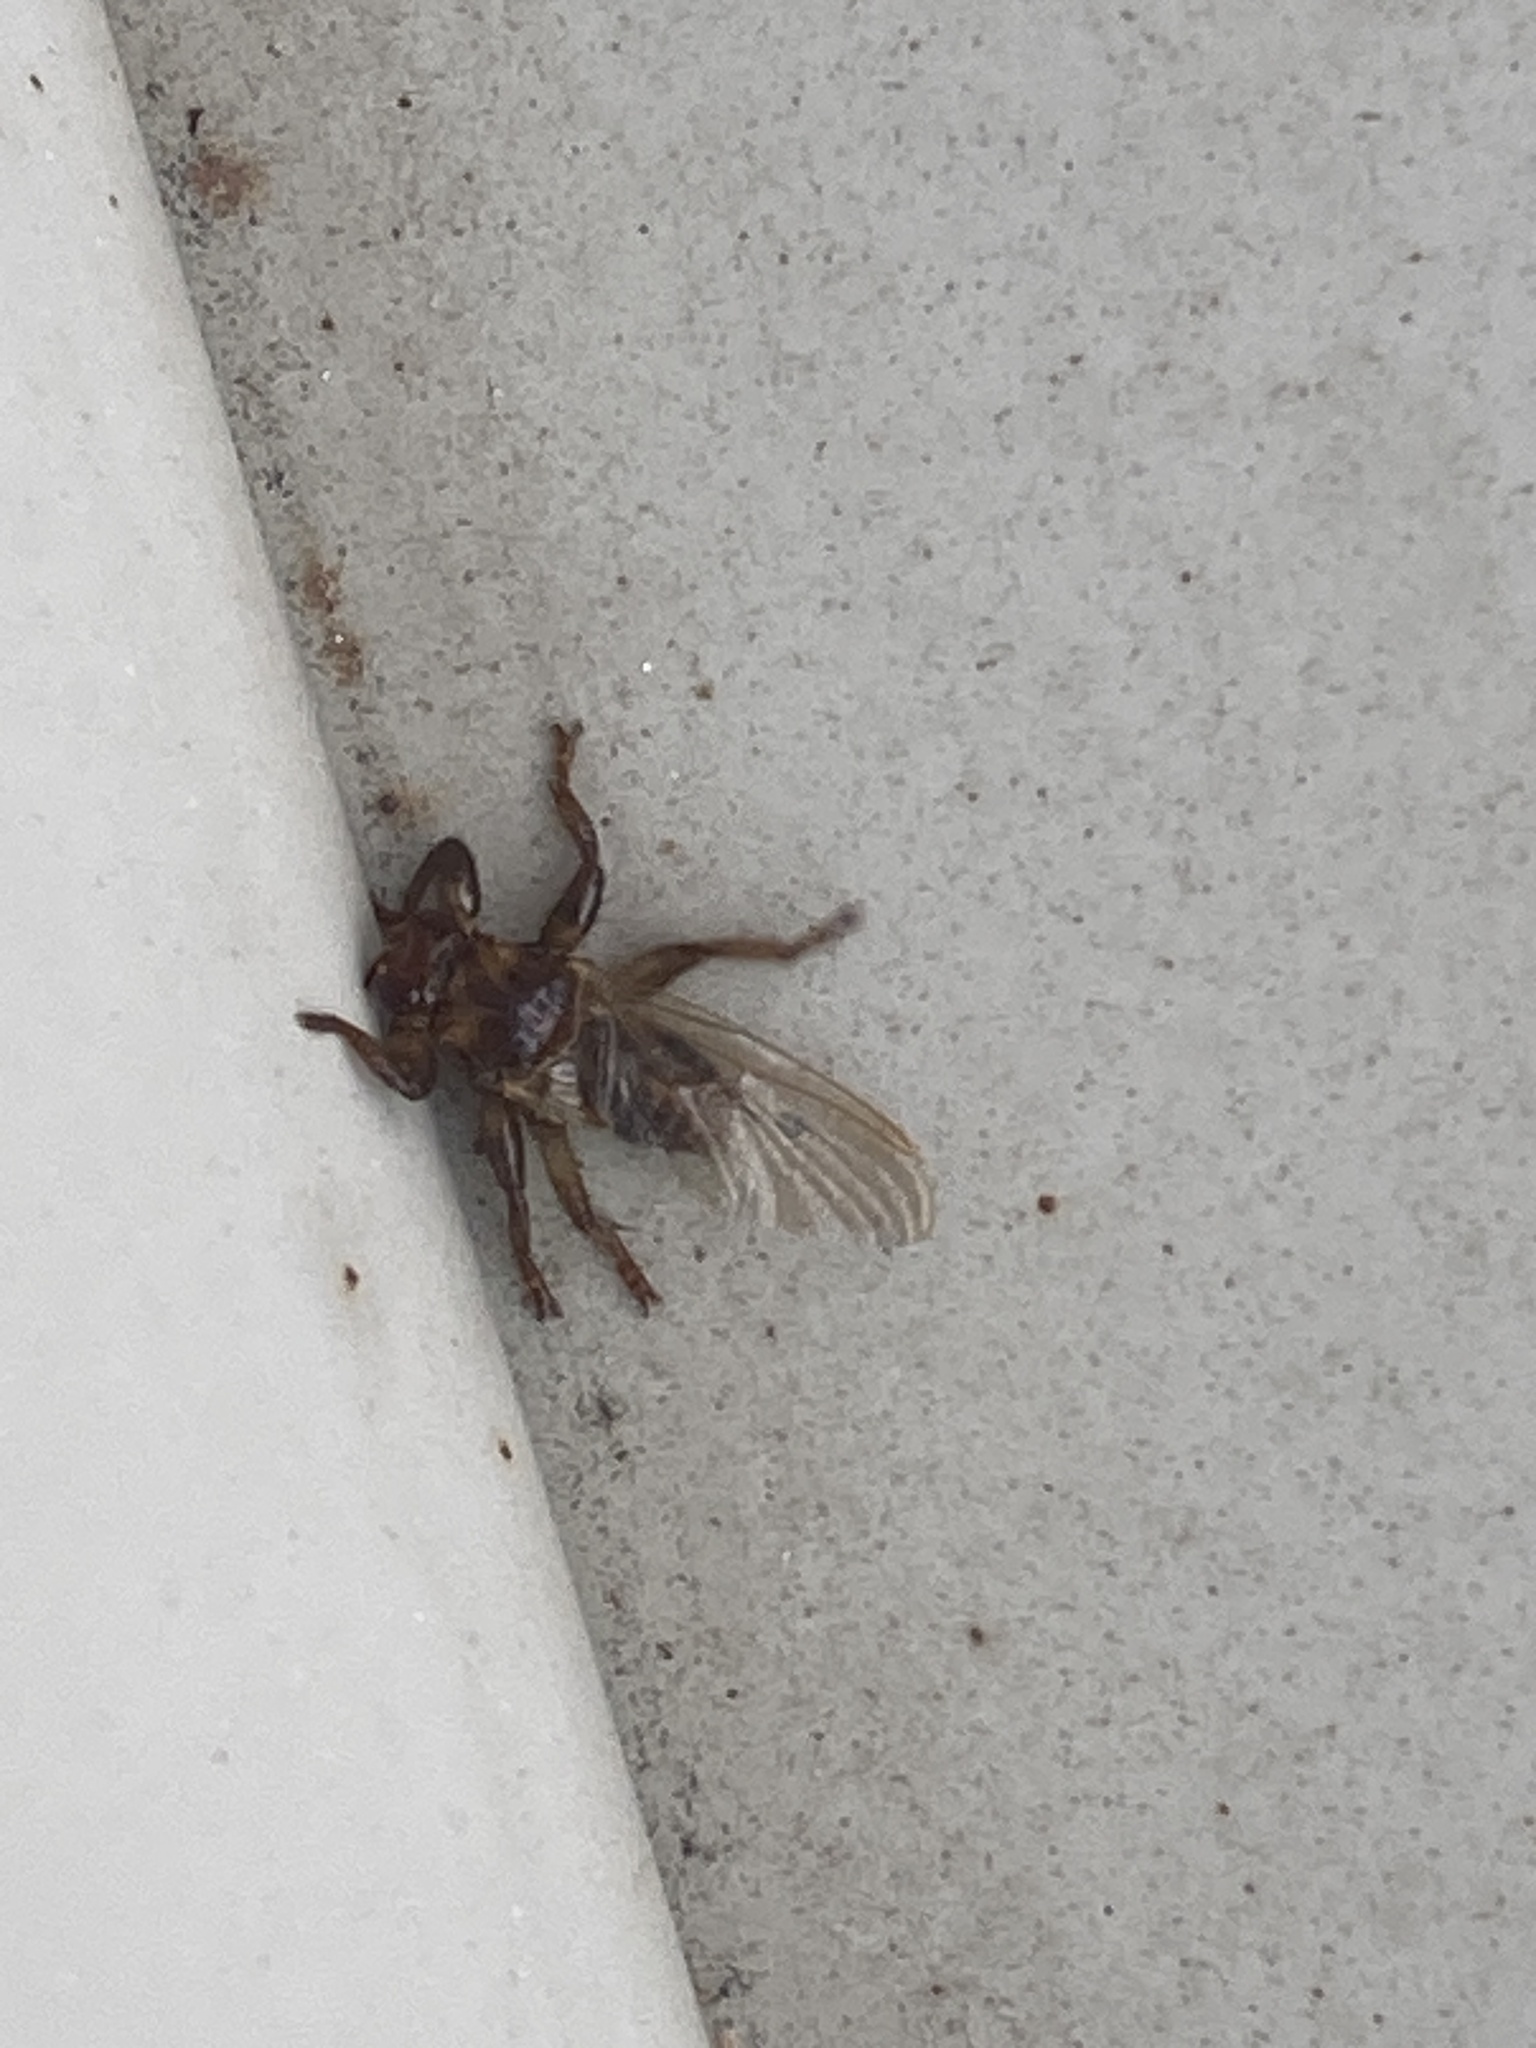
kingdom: Animalia
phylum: Arthropoda
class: Insecta
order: Diptera
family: Hippoboscidae
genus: Lipoptena
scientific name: Lipoptena cervi
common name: Deer ked
